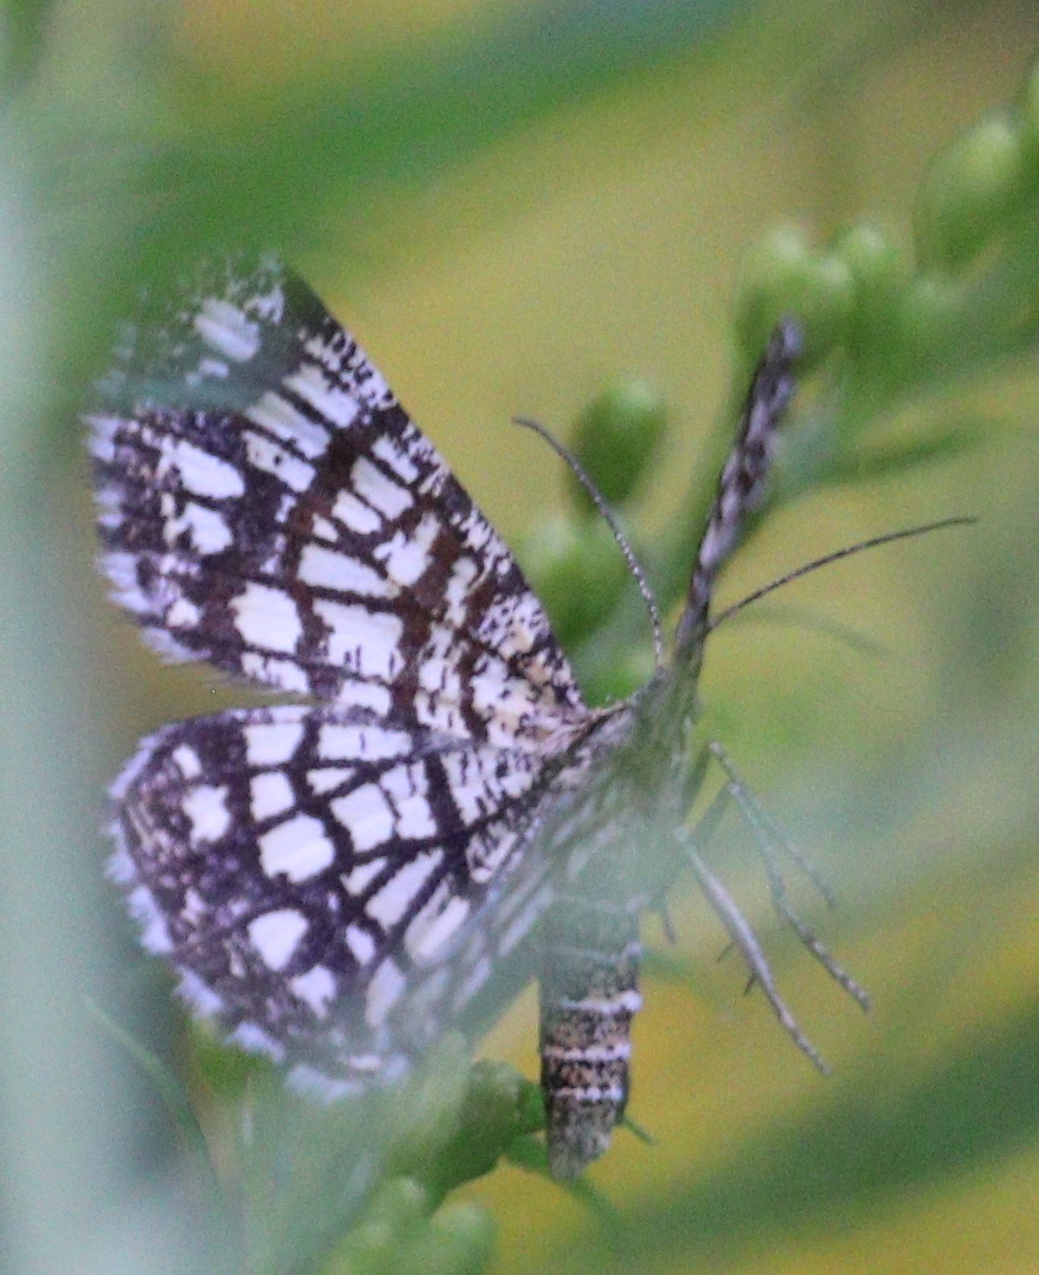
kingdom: Animalia
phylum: Arthropoda
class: Insecta
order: Lepidoptera
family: Geometridae
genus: Chiasmia
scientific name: Chiasmia clathrata
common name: Latticed heath
